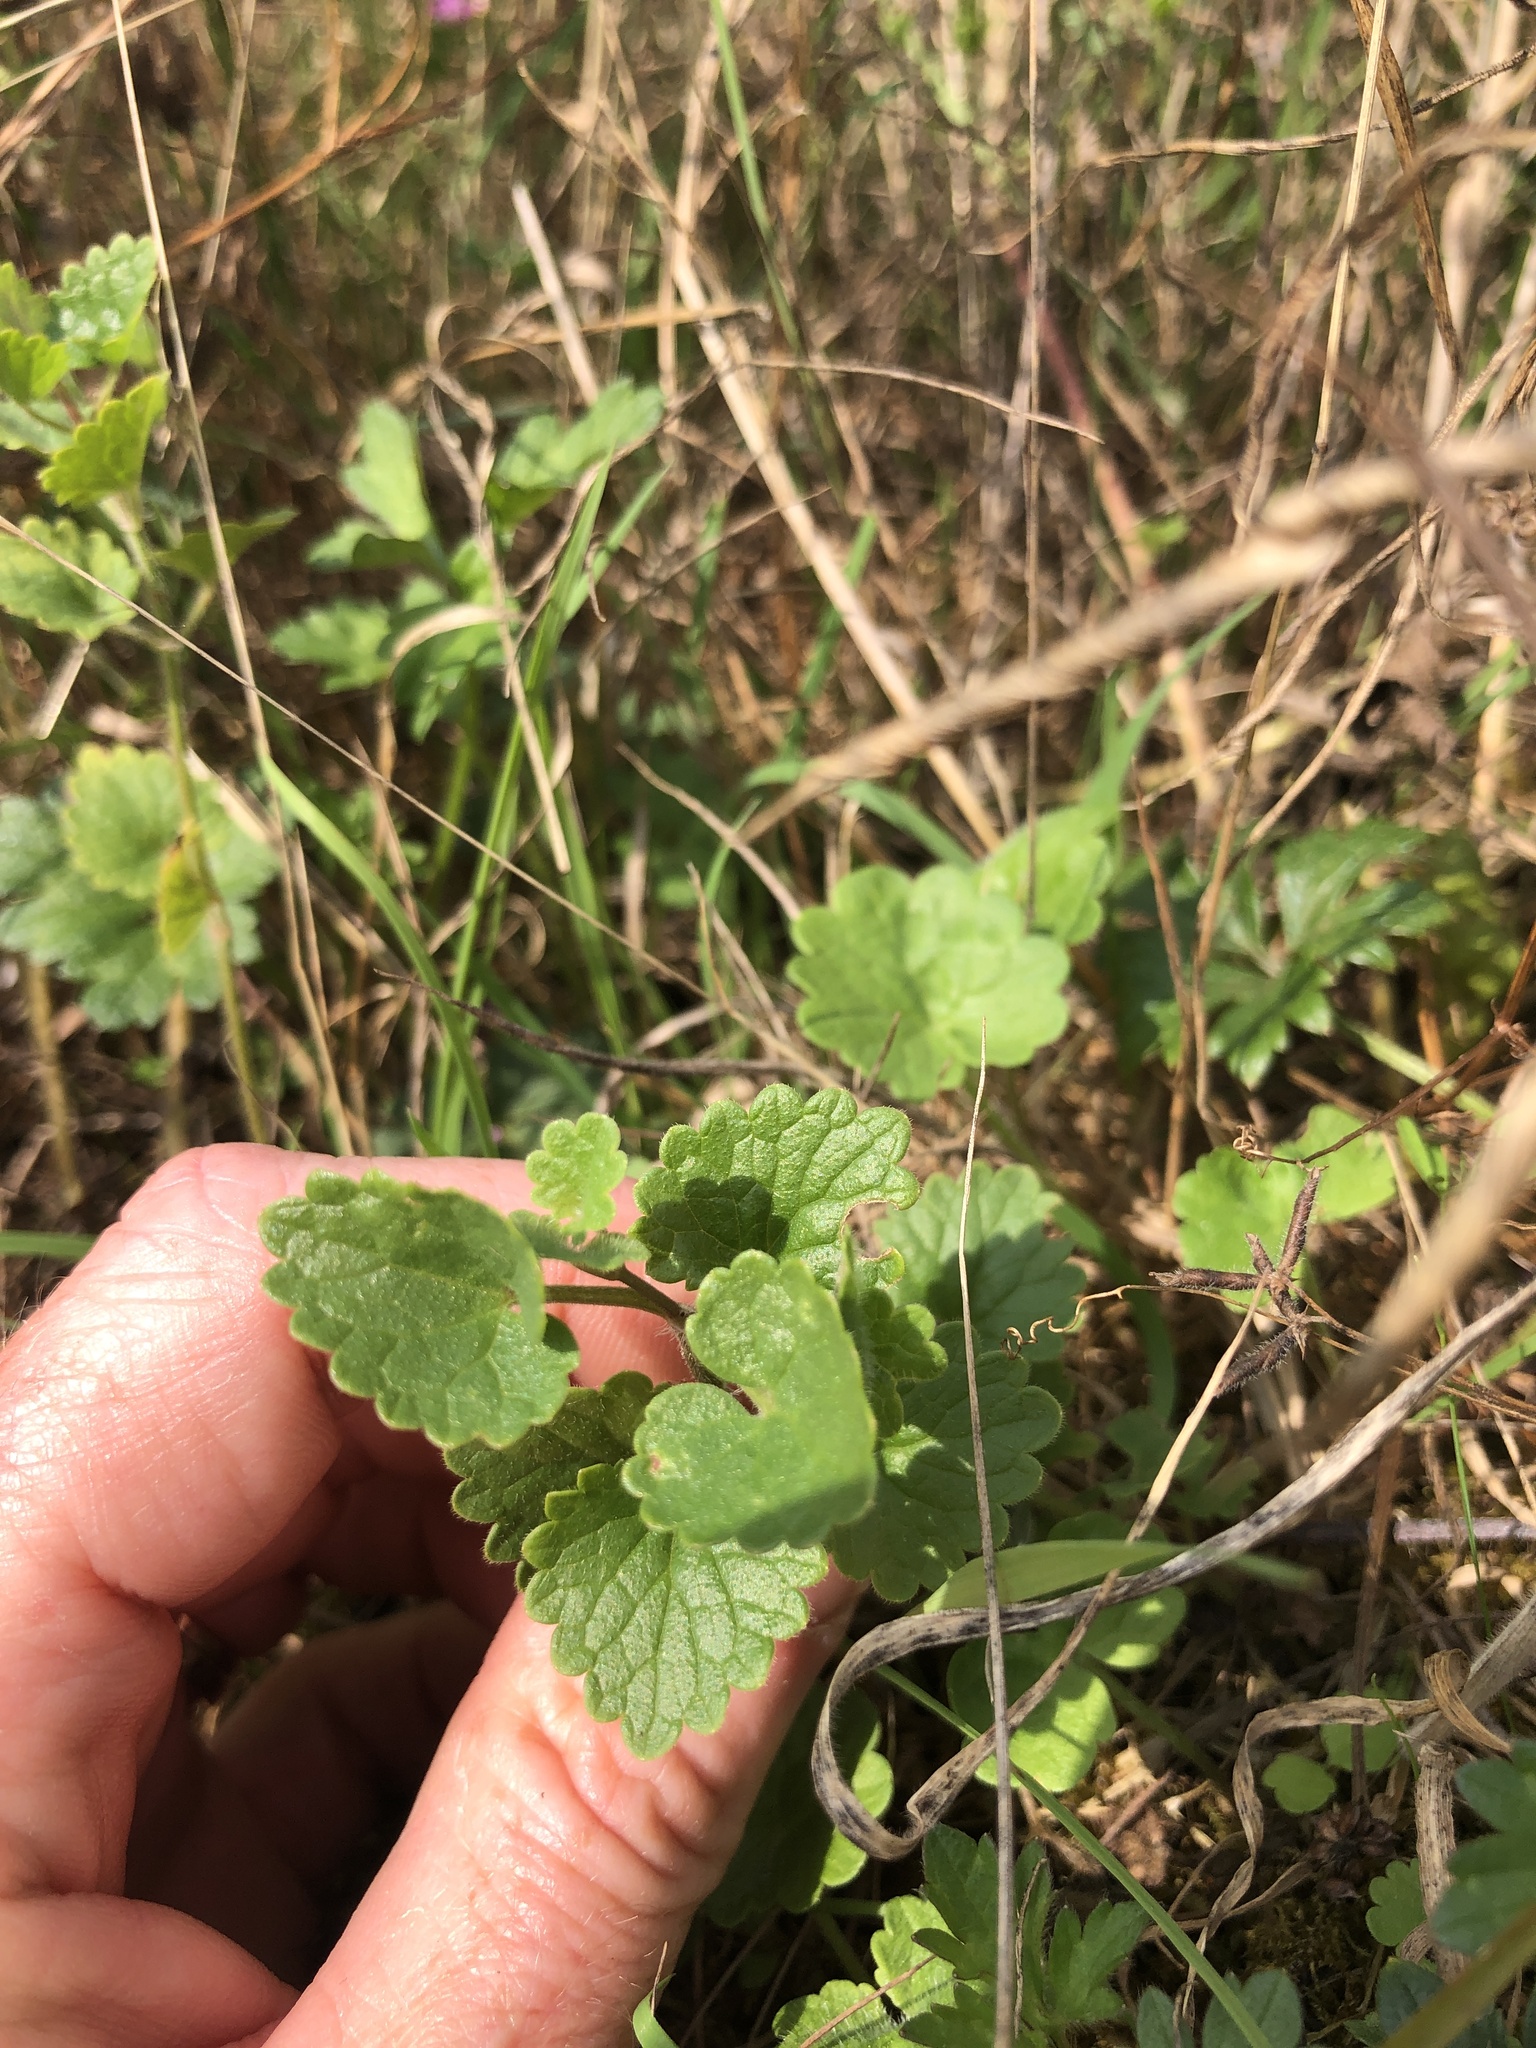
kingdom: Plantae
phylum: Tracheophyta
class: Magnoliopsida
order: Lamiales
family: Lamiaceae
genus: Glechoma
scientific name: Glechoma hederacea
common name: Ground ivy
